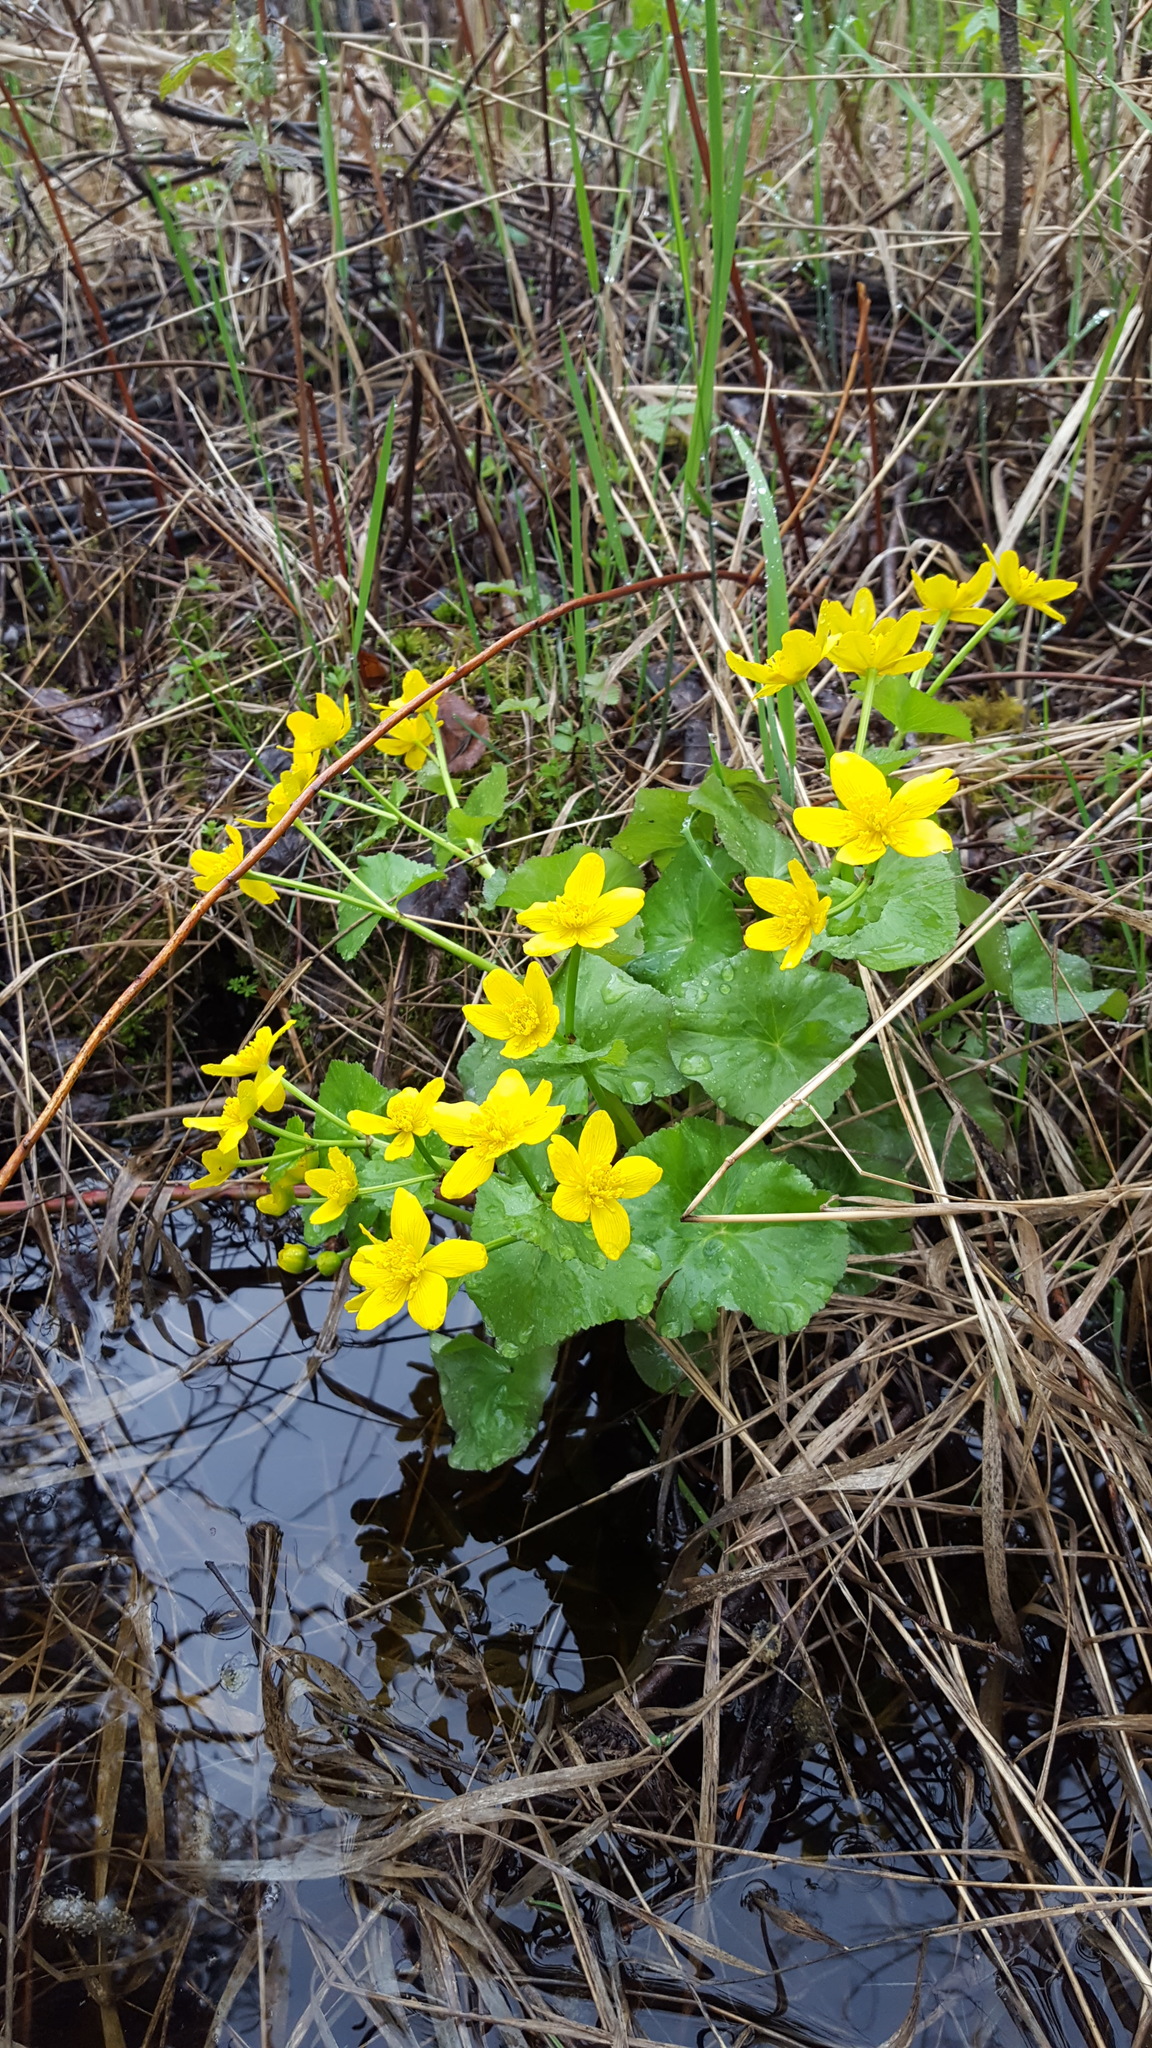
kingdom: Plantae
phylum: Tracheophyta
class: Magnoliopsida
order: Ranunculales
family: Ranunculaceae
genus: Caltha
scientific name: Caltha palustris
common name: Marsh marigold
